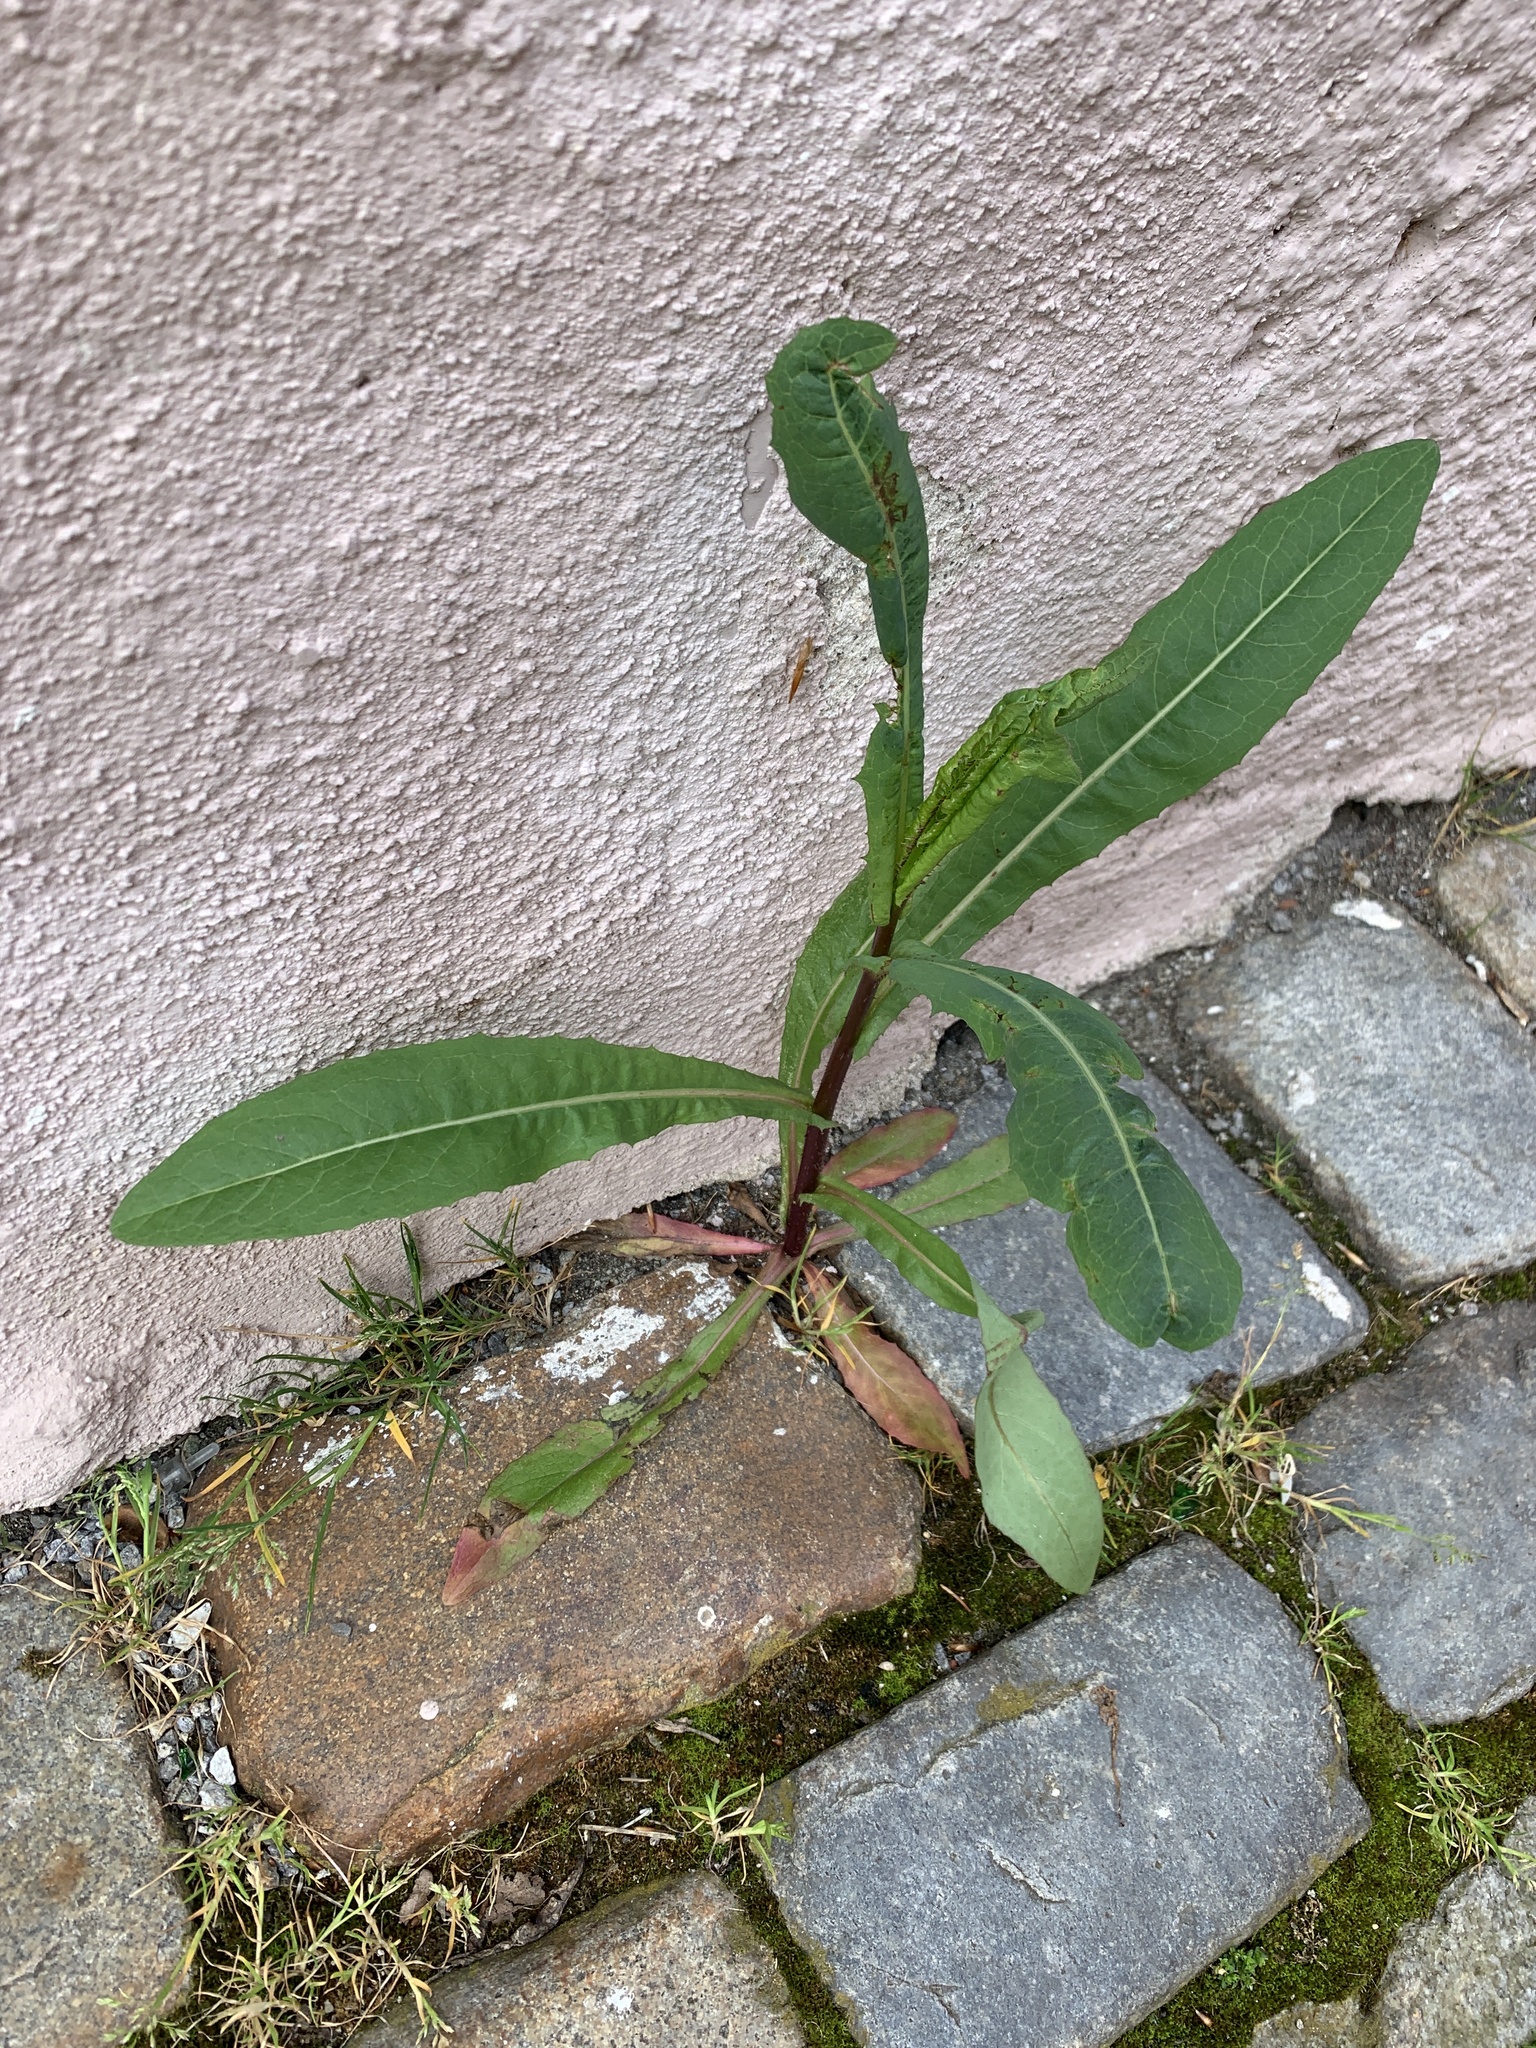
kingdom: Plantae
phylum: Tracheophyta
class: Magnoliopsida
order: Asterales
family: Asteraceae
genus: Lactuca
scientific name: Lactuca serriola
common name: Prickly lettuce
